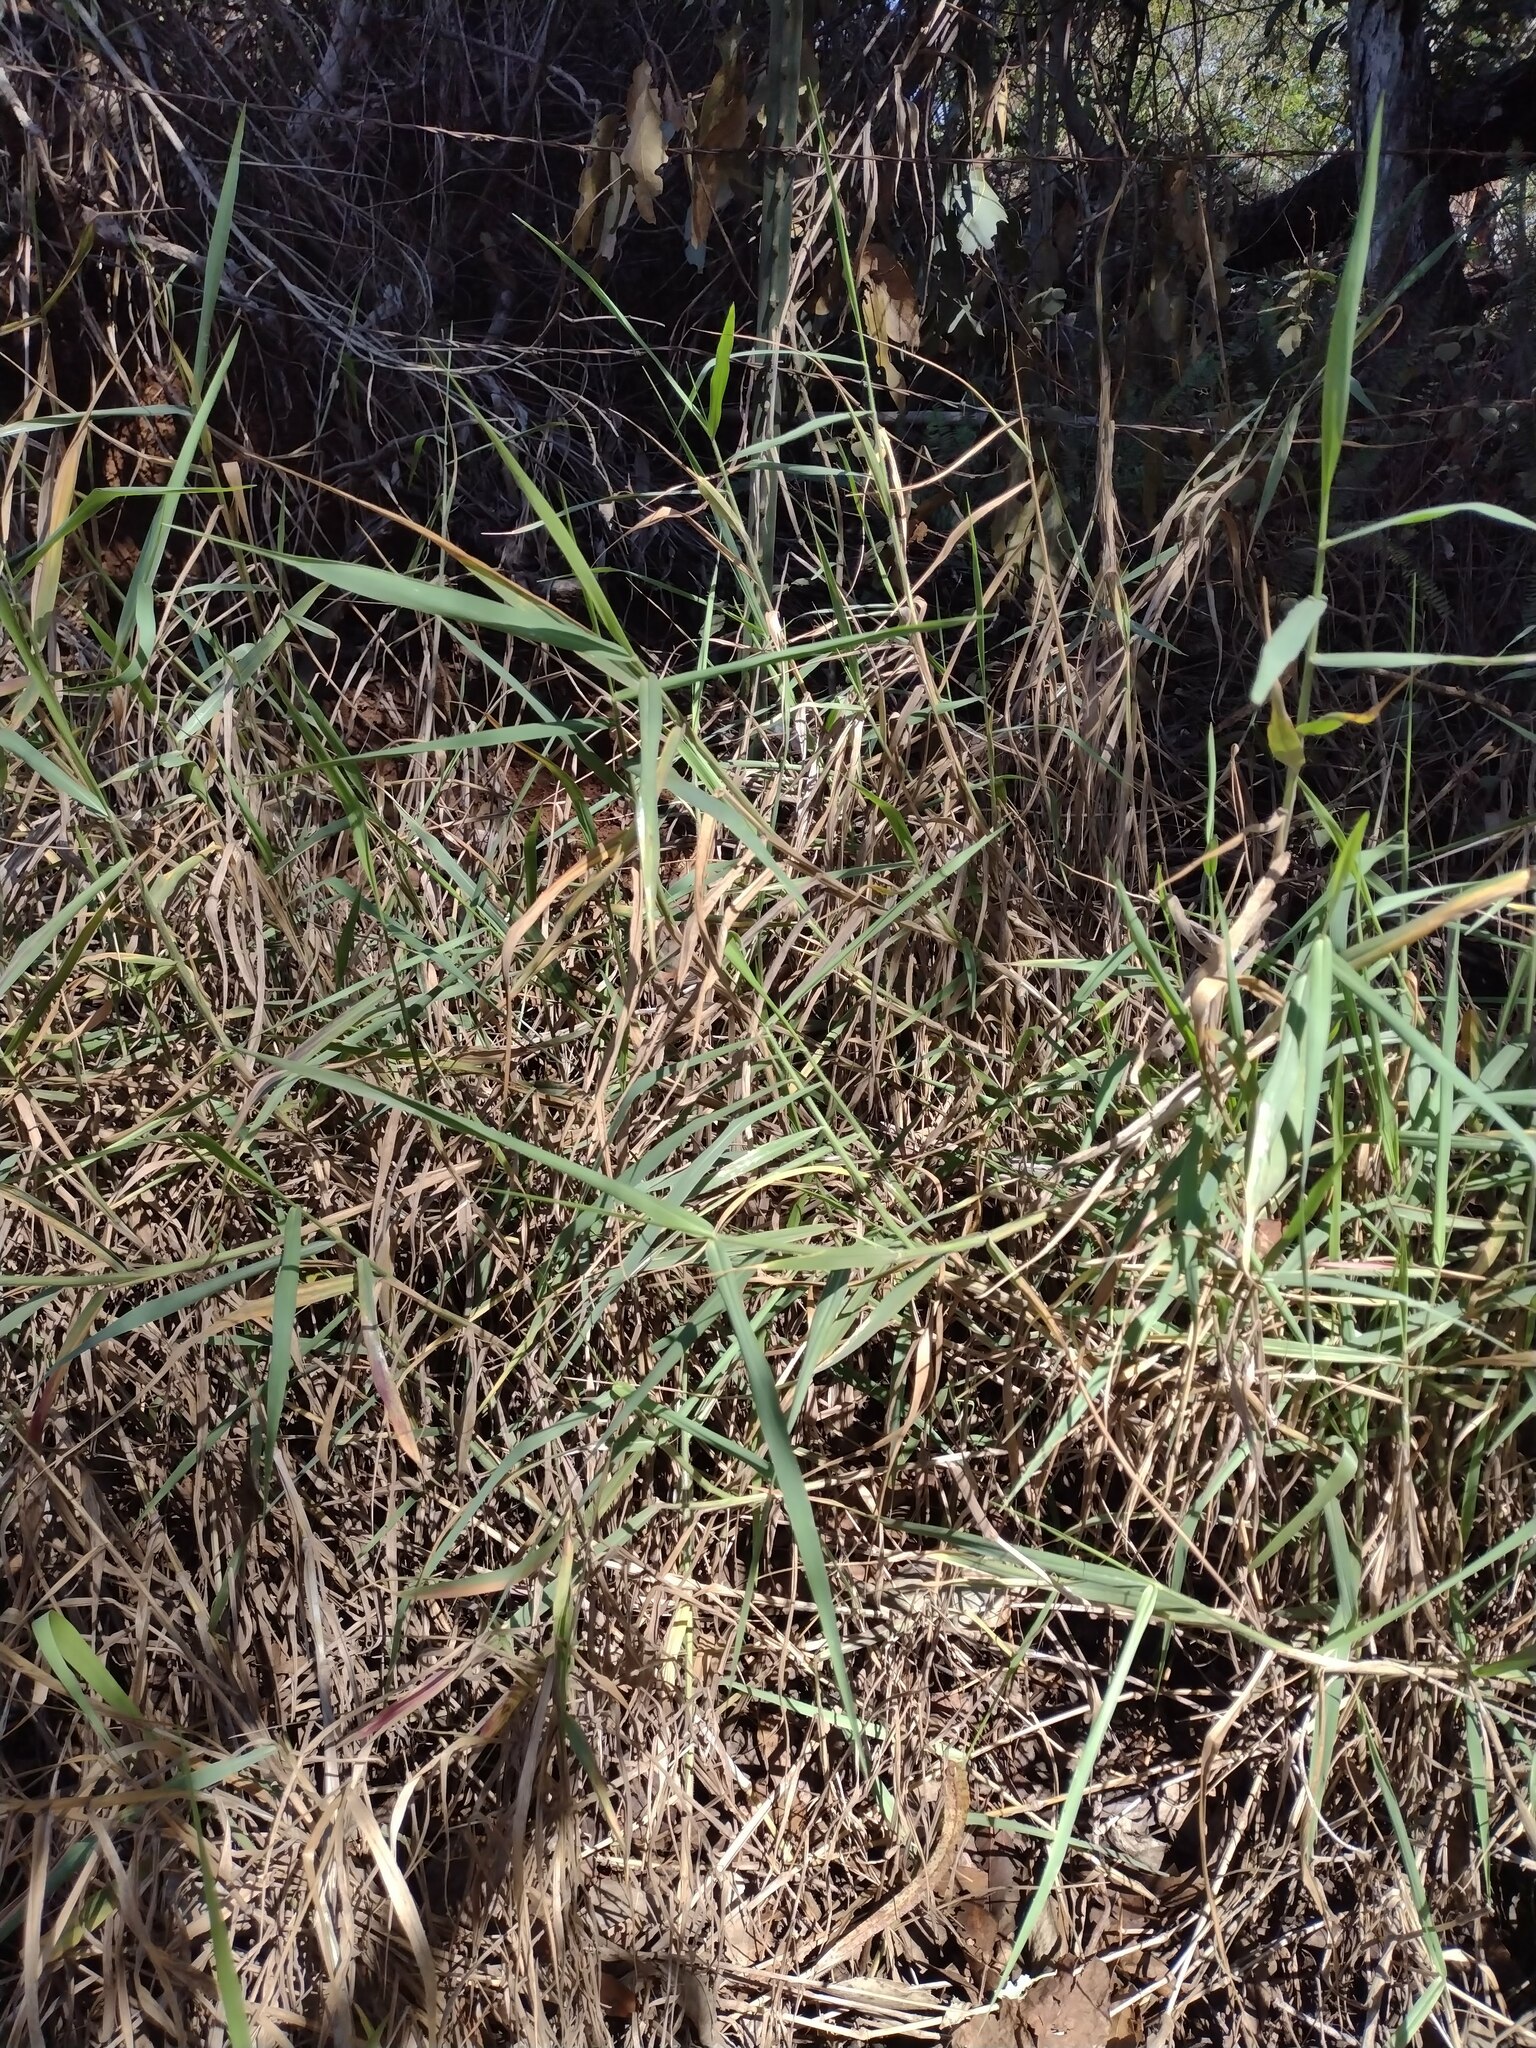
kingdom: Plantae
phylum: Tracheophyta
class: Liliopsida
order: Poales
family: Poaceae
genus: Urochloa
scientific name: Urochloa mutica
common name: Para grass
